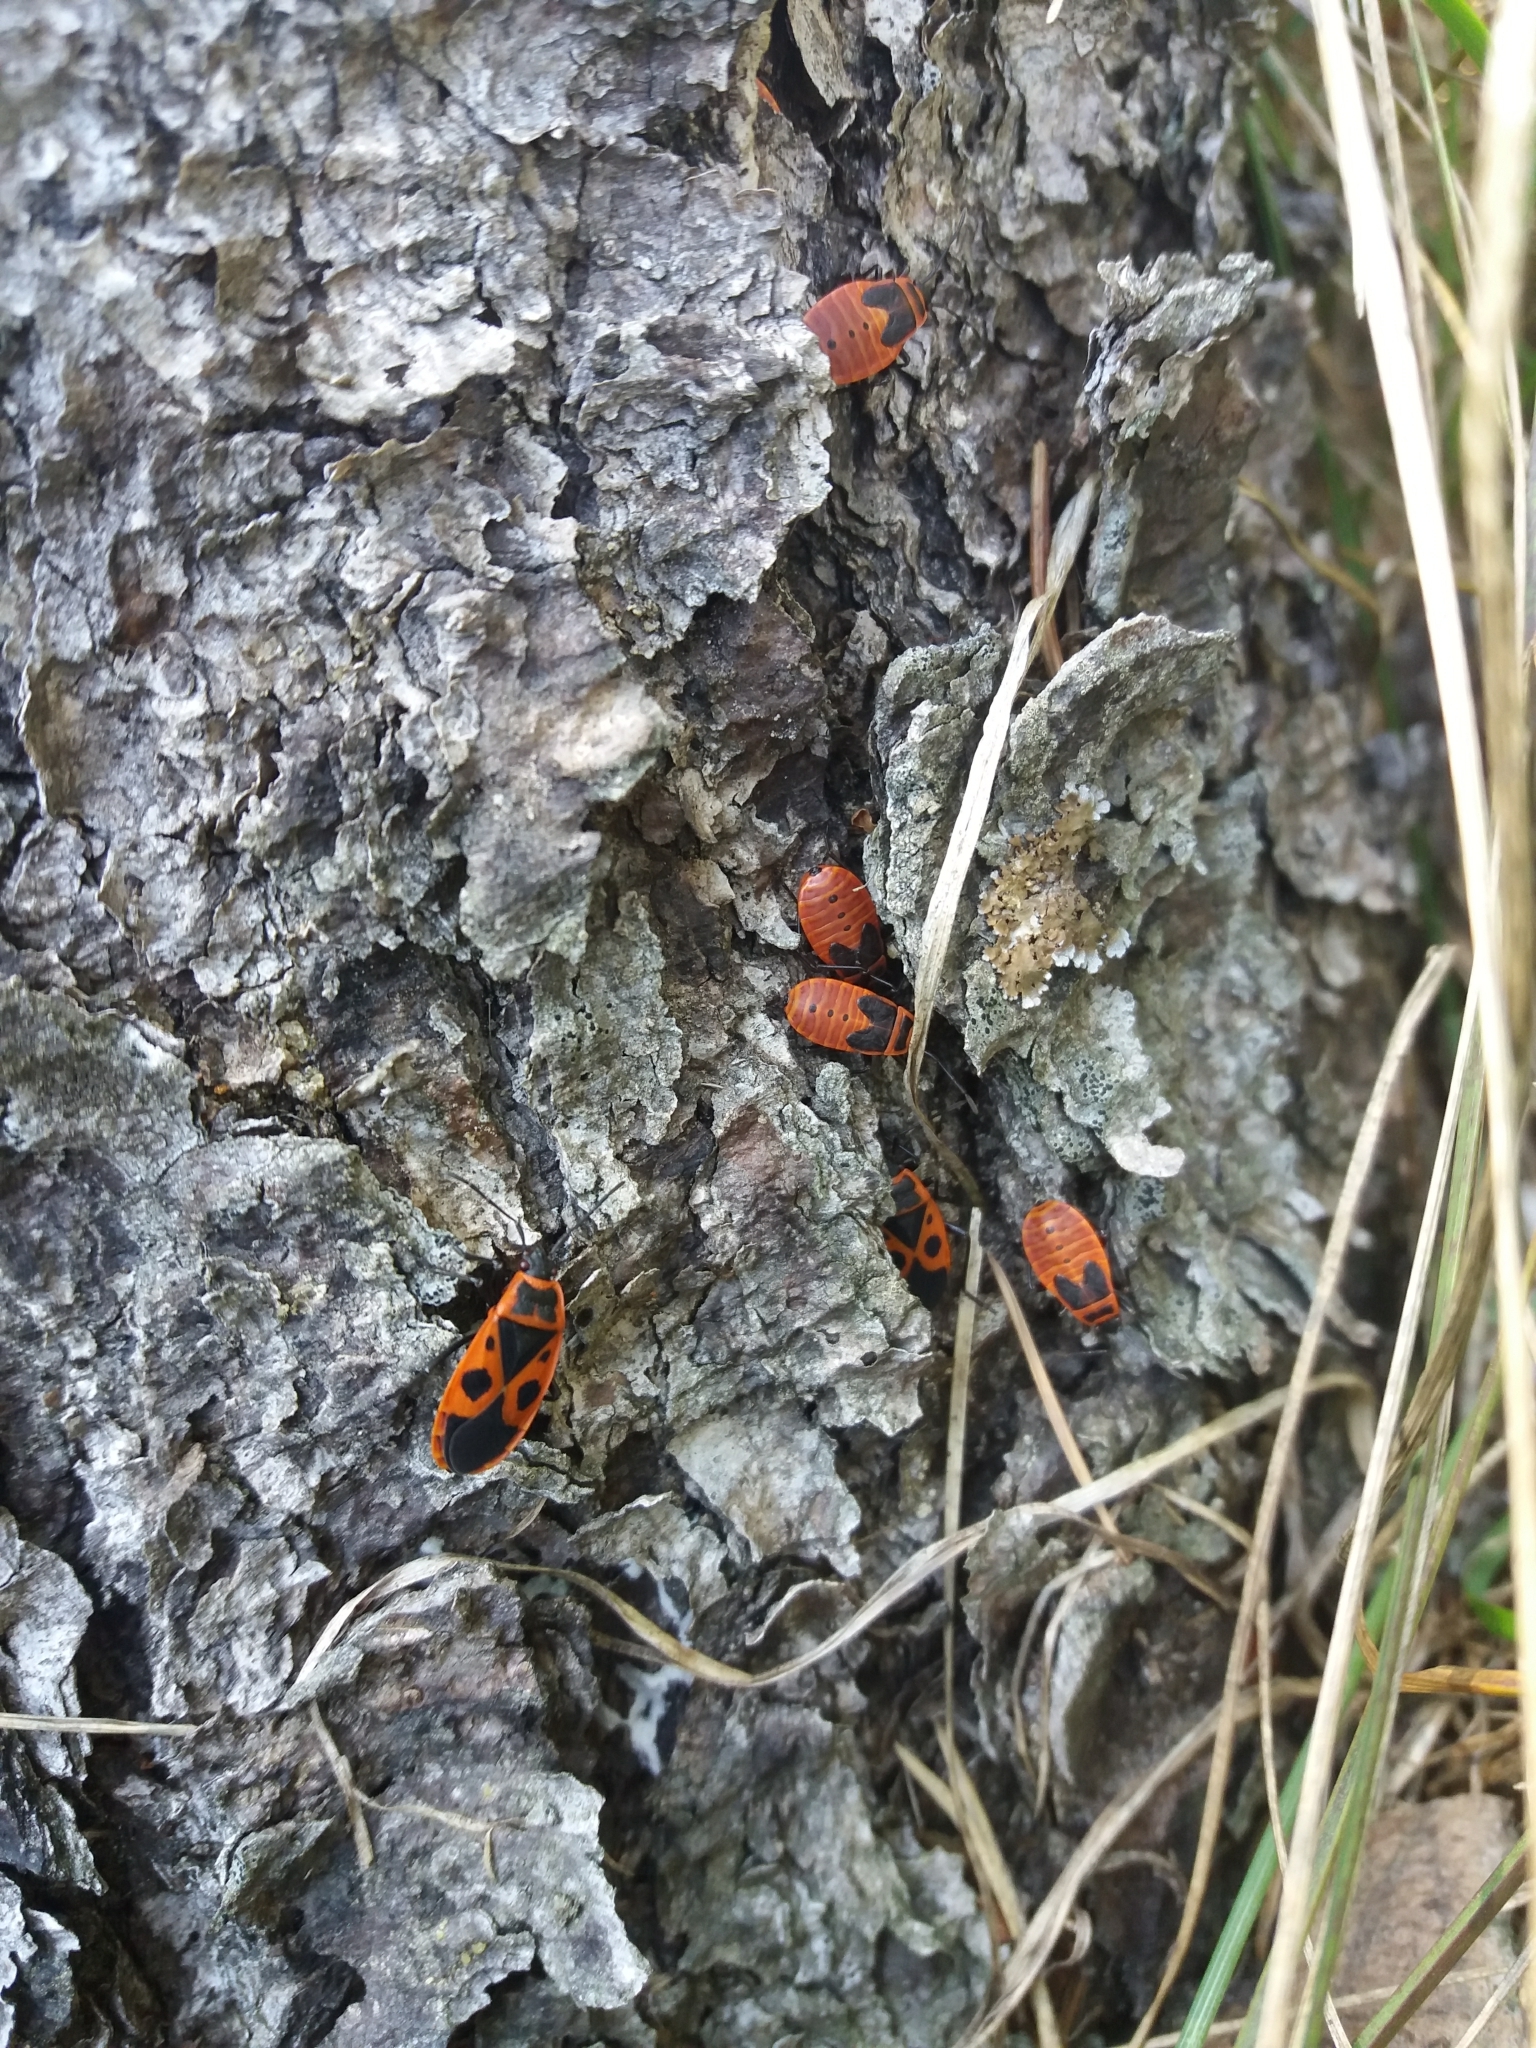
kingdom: Animalia
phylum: Arthropoda
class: Insecta
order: Hemiptera
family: Pyrrhocoridae
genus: Pyrrhocoris
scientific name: Pyrrhocoris apterus
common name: Firebug
